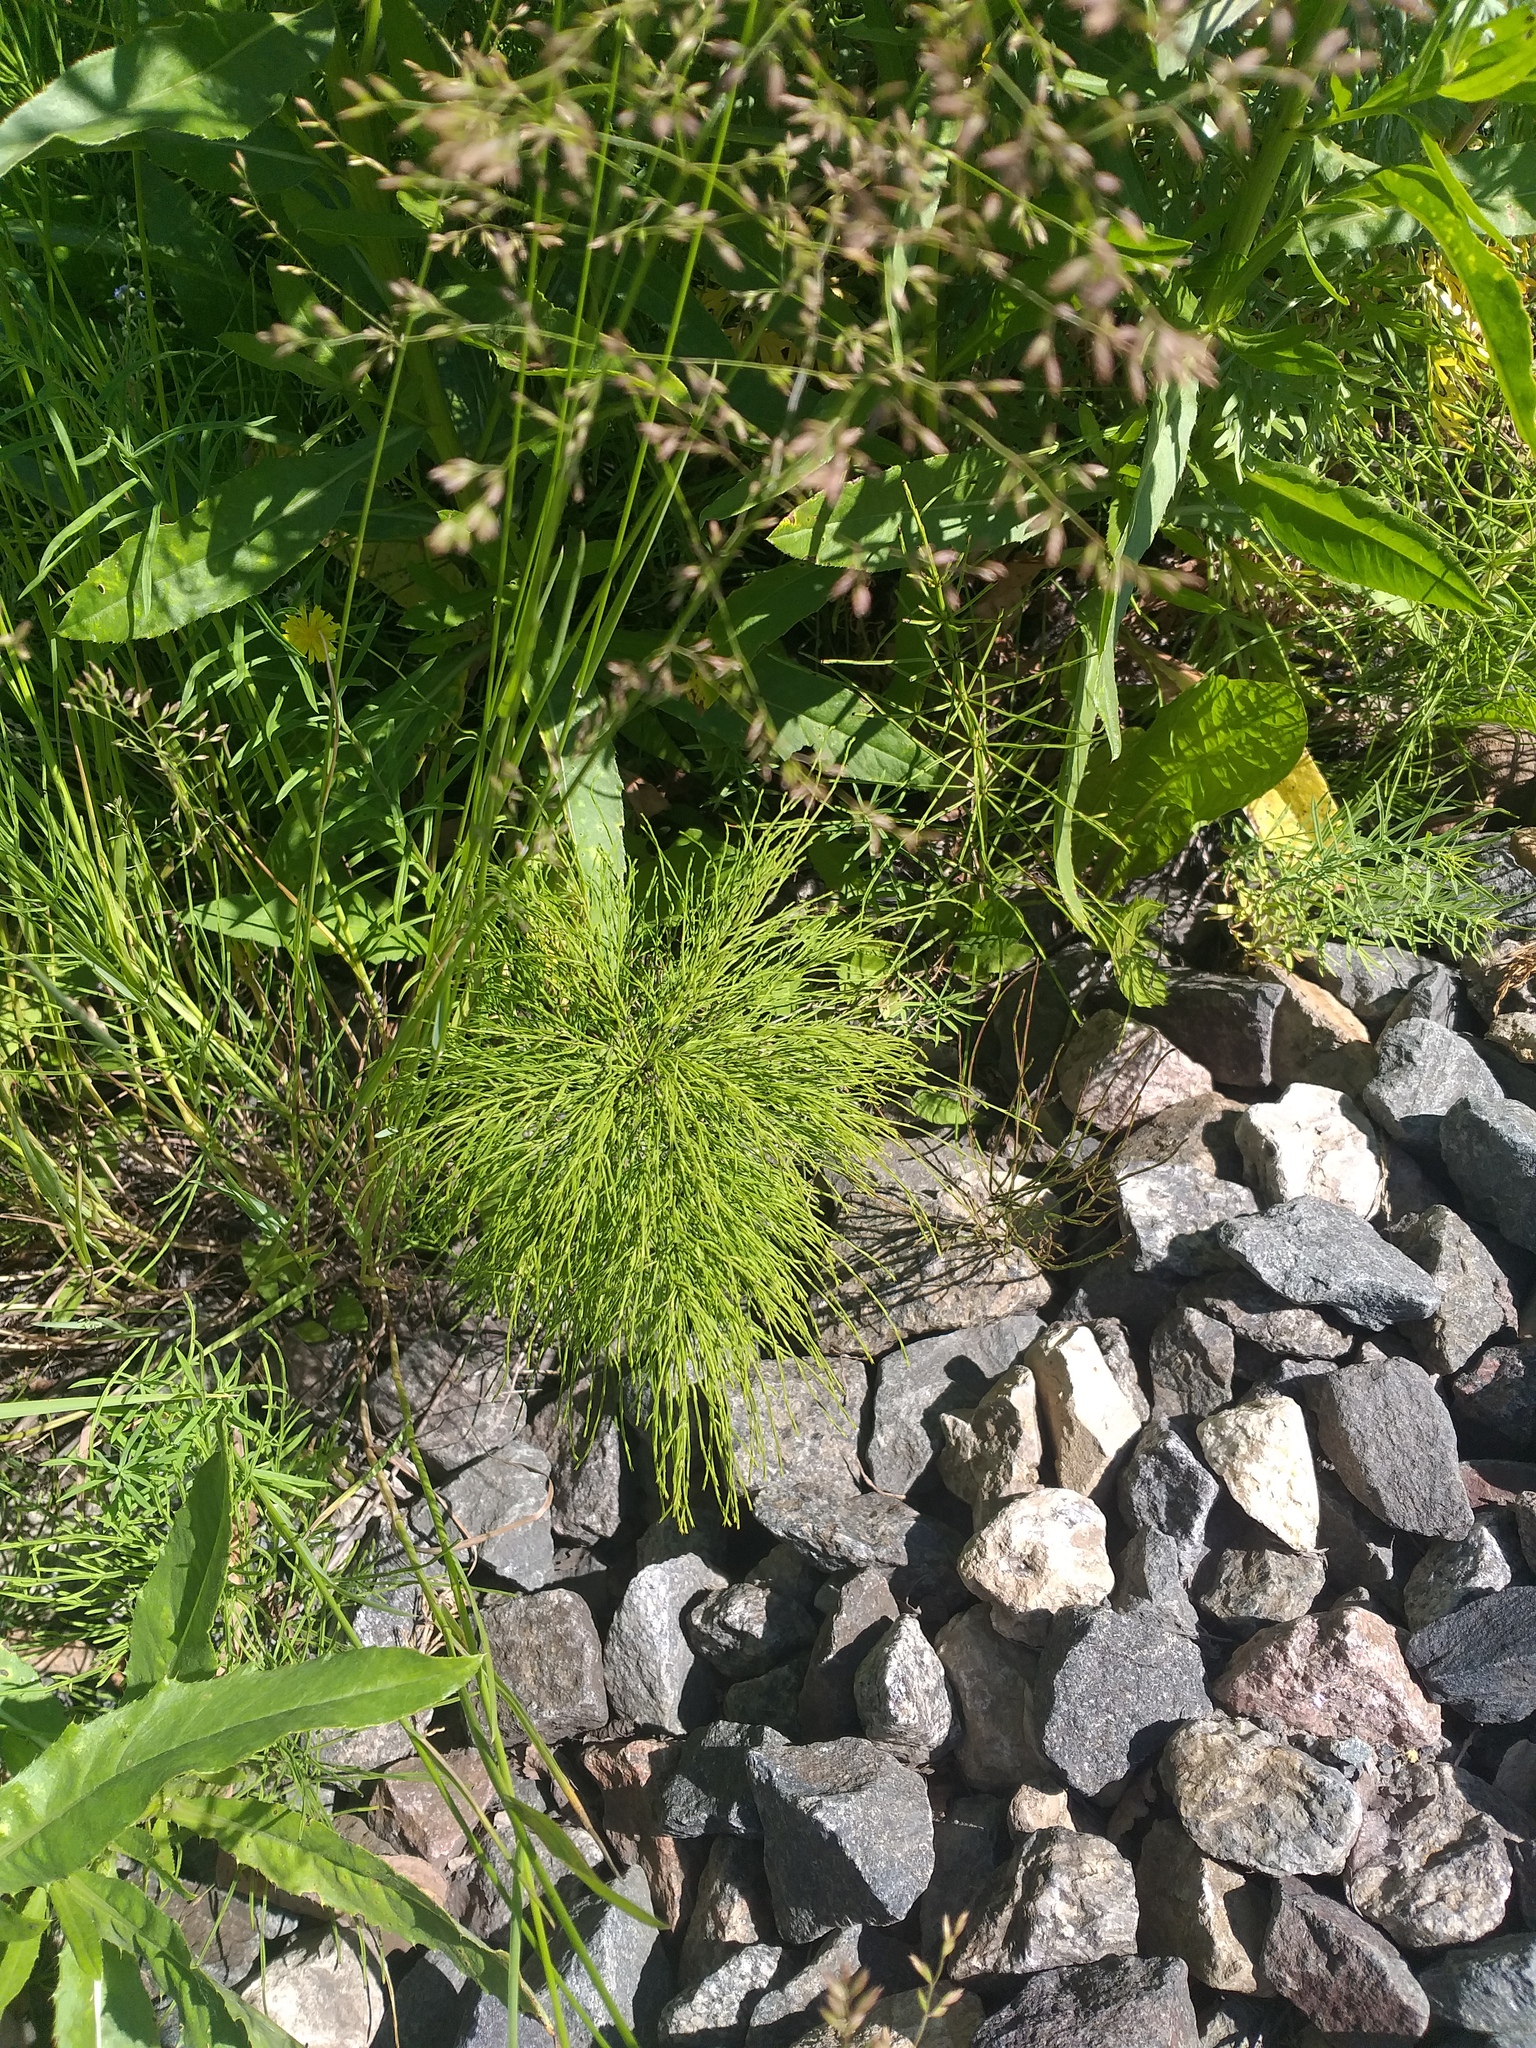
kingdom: Plantae
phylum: Tracheophyta
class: Polypodiopsida
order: Equisetales
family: Equisetaceae
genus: Equisetum
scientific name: Equisetum sylvaticum
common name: Wood horsetail
